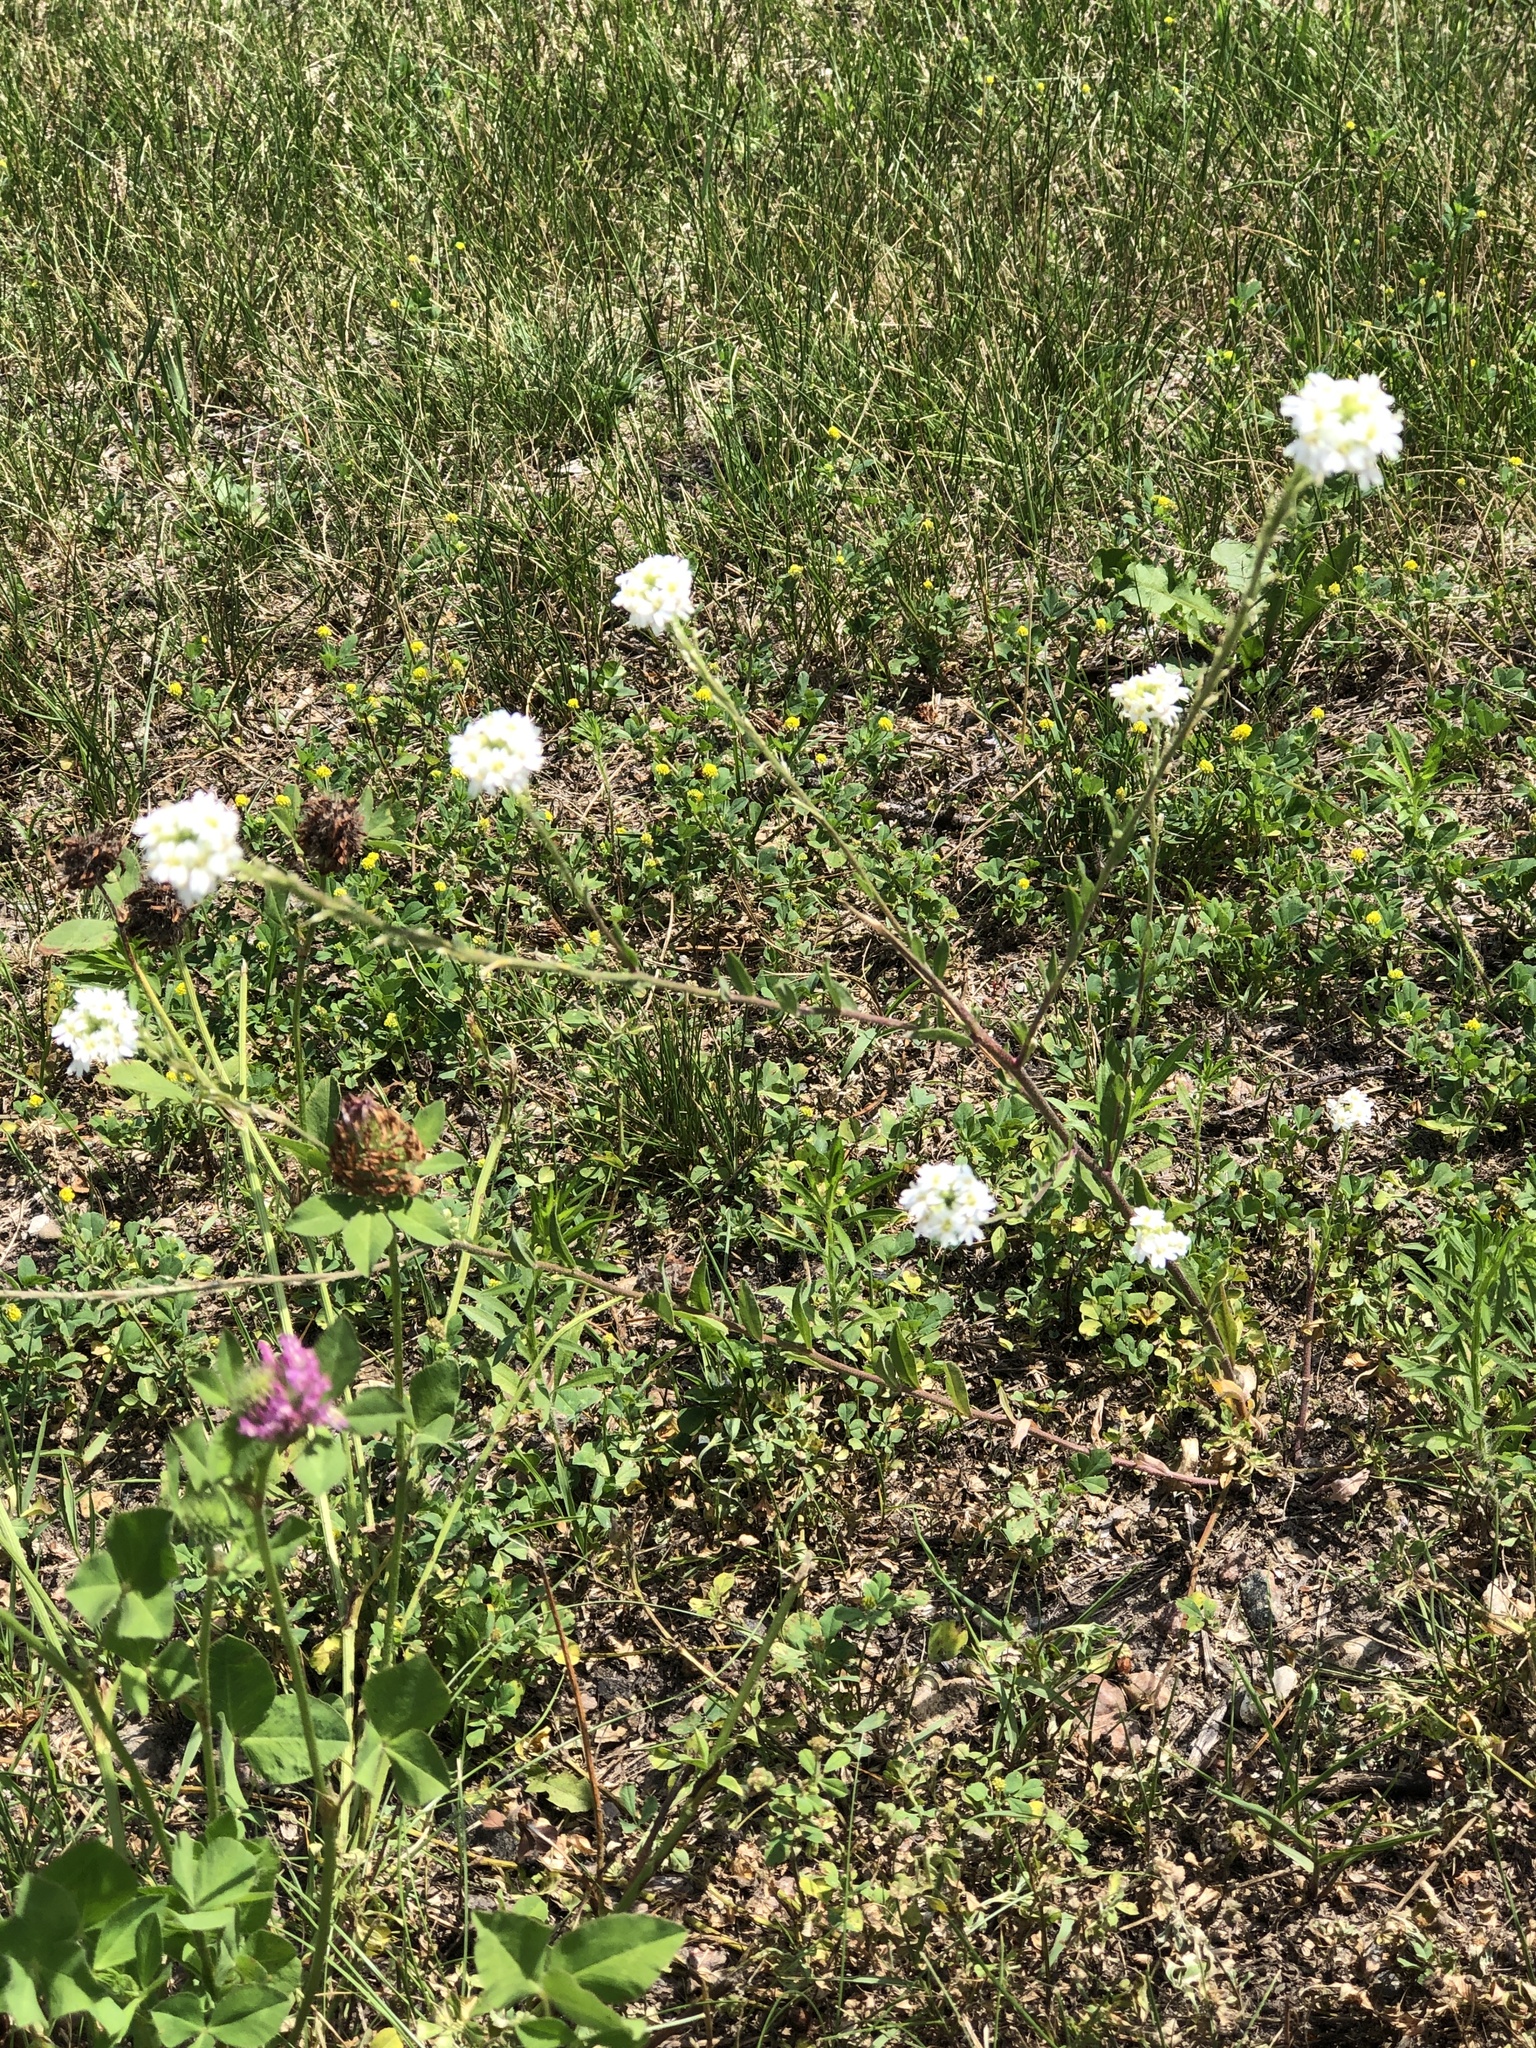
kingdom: Plantae
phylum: Tracheophyta
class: Magnoliopsida
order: Brassicales
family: Brassicaceae
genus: Berteroa
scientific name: Berteroa incana
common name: Hoary alison
